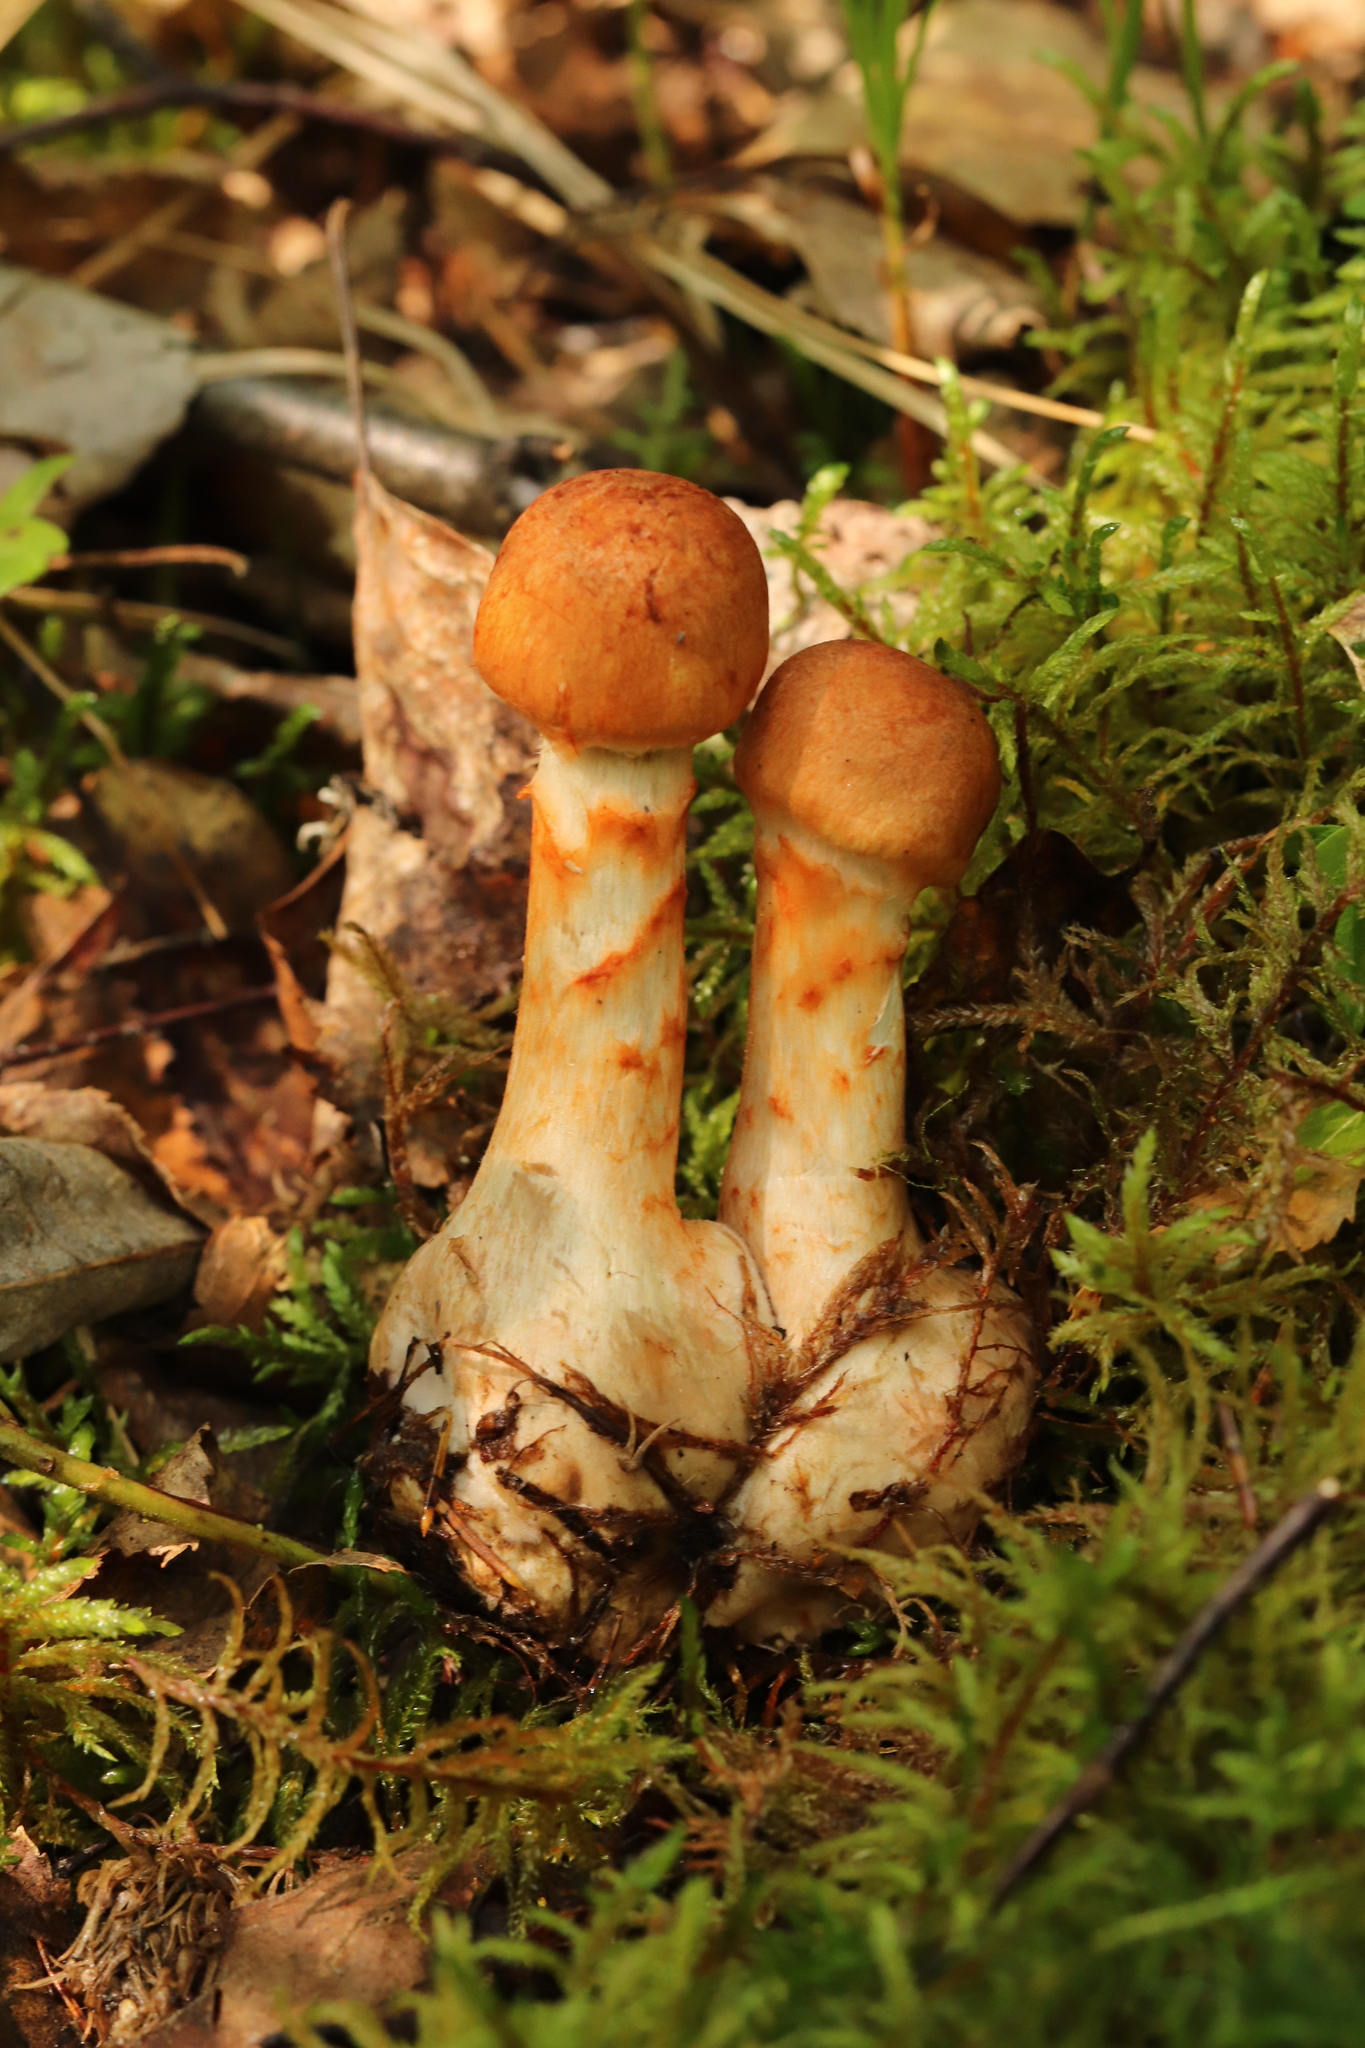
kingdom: Fungi
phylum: Basidiomycota
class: Agaricomycetes
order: Agaricales
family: Cortinariaceae
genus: Cortinarius
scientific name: Cortinarius armillatus
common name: Red banded webcap
